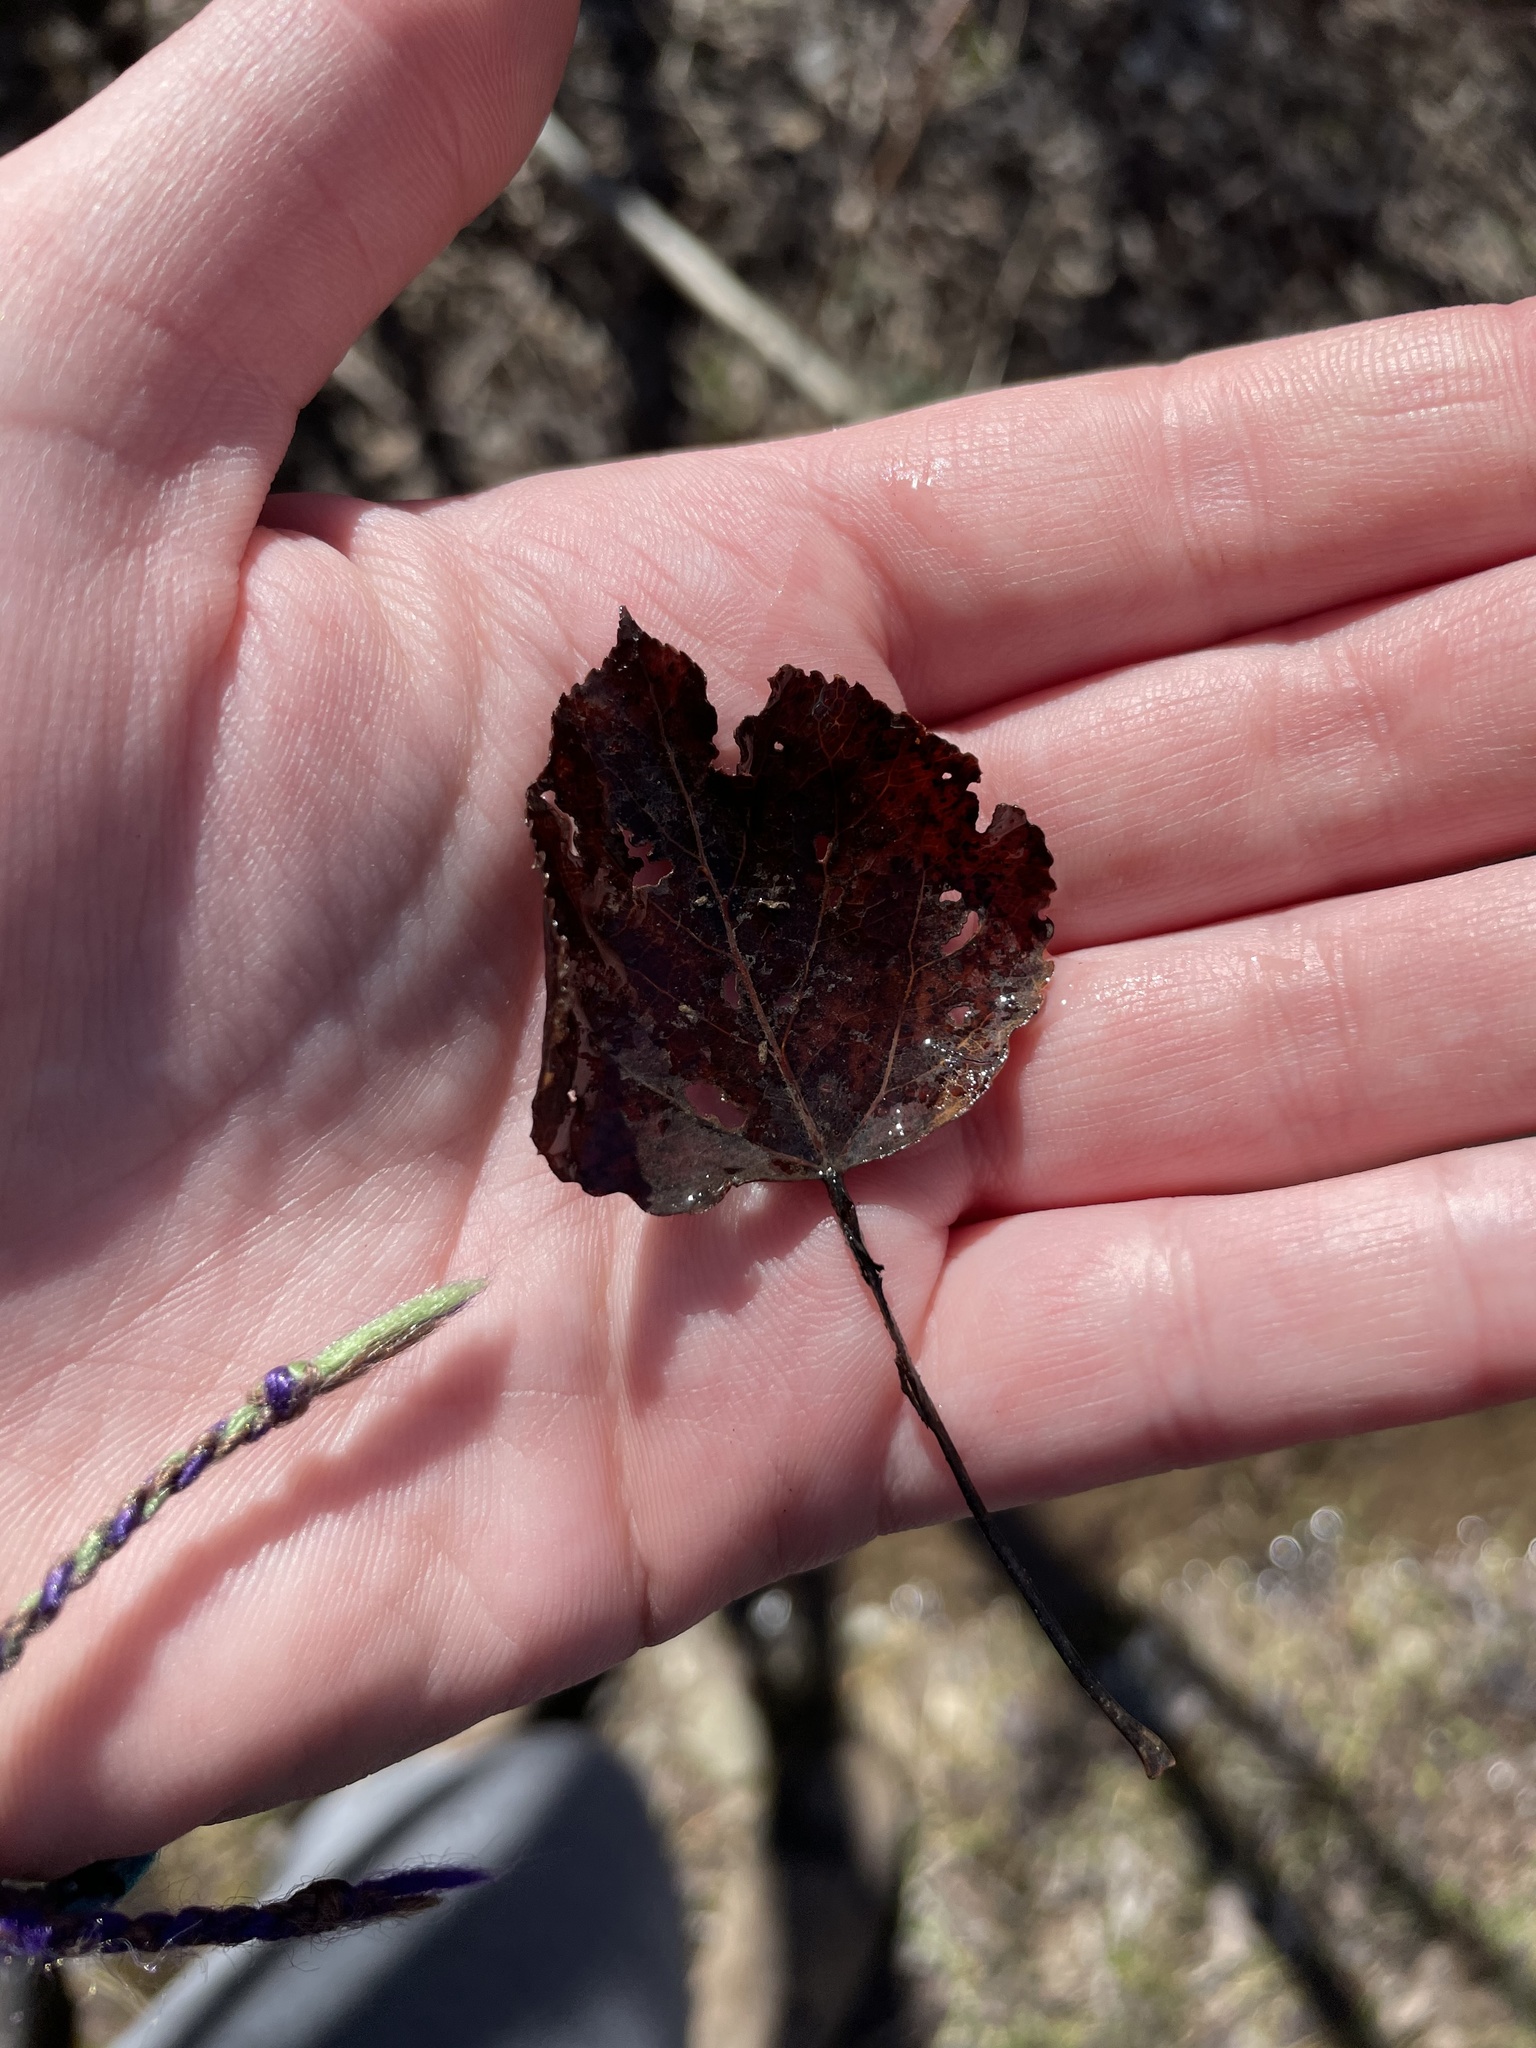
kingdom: Plantae
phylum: Tracheophyta
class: Magnoliopsida
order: Malpighiales
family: Salicaceae
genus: Populus
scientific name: Populus tremuloides
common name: Quaking aspen
